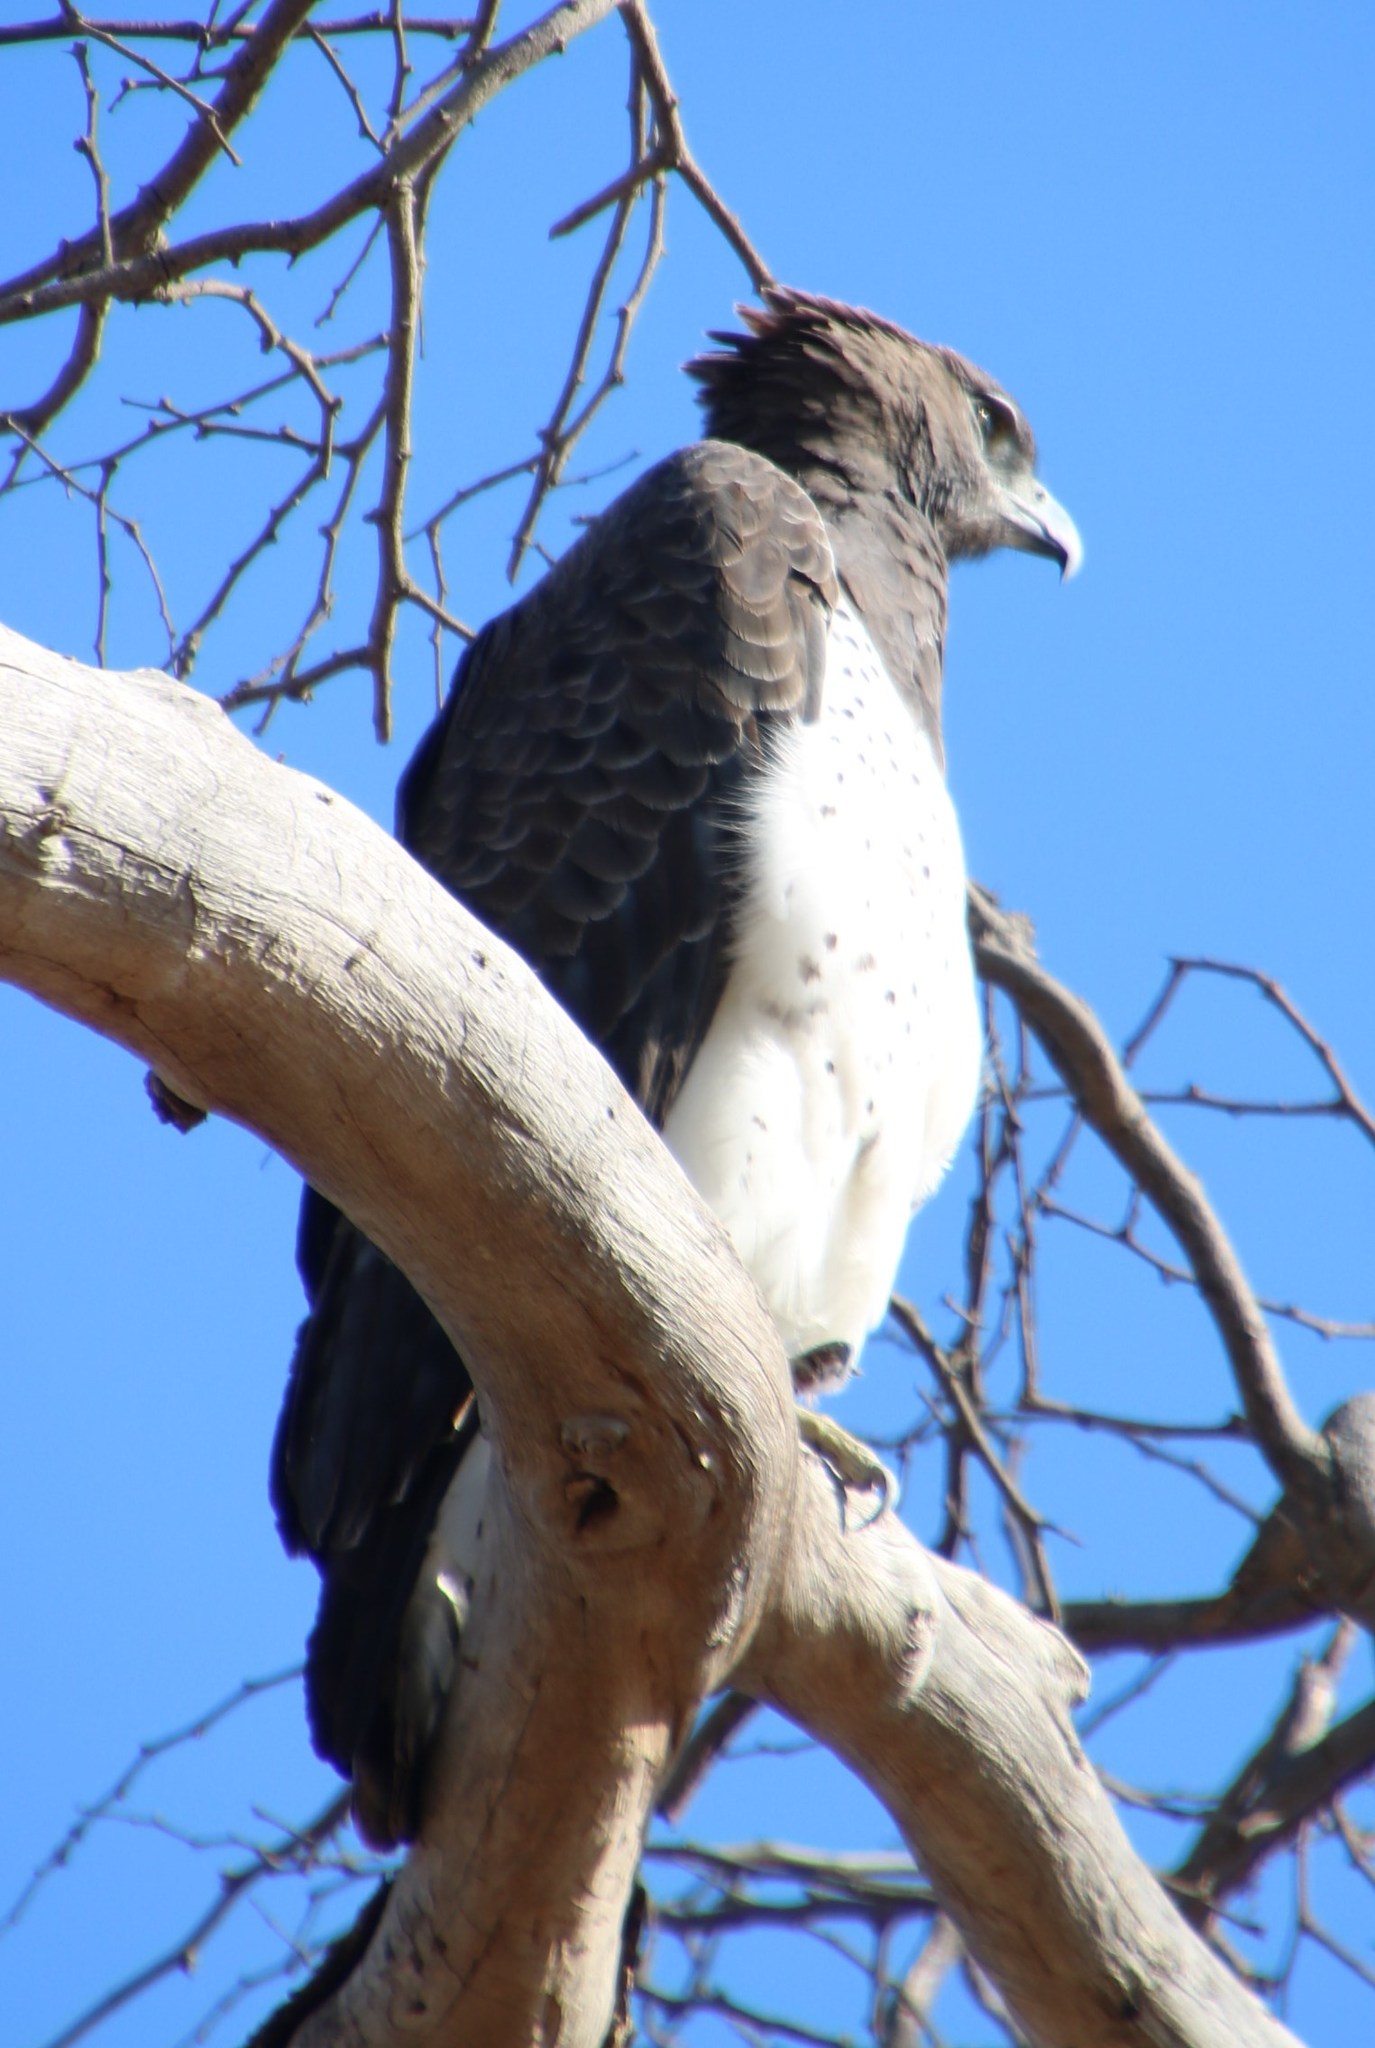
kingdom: Animalia
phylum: Chordata
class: Aves
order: Accipitriformes
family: Accipitridae
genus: Polemaetus
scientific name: Polemaetus bellicosus
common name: Martial eagle
